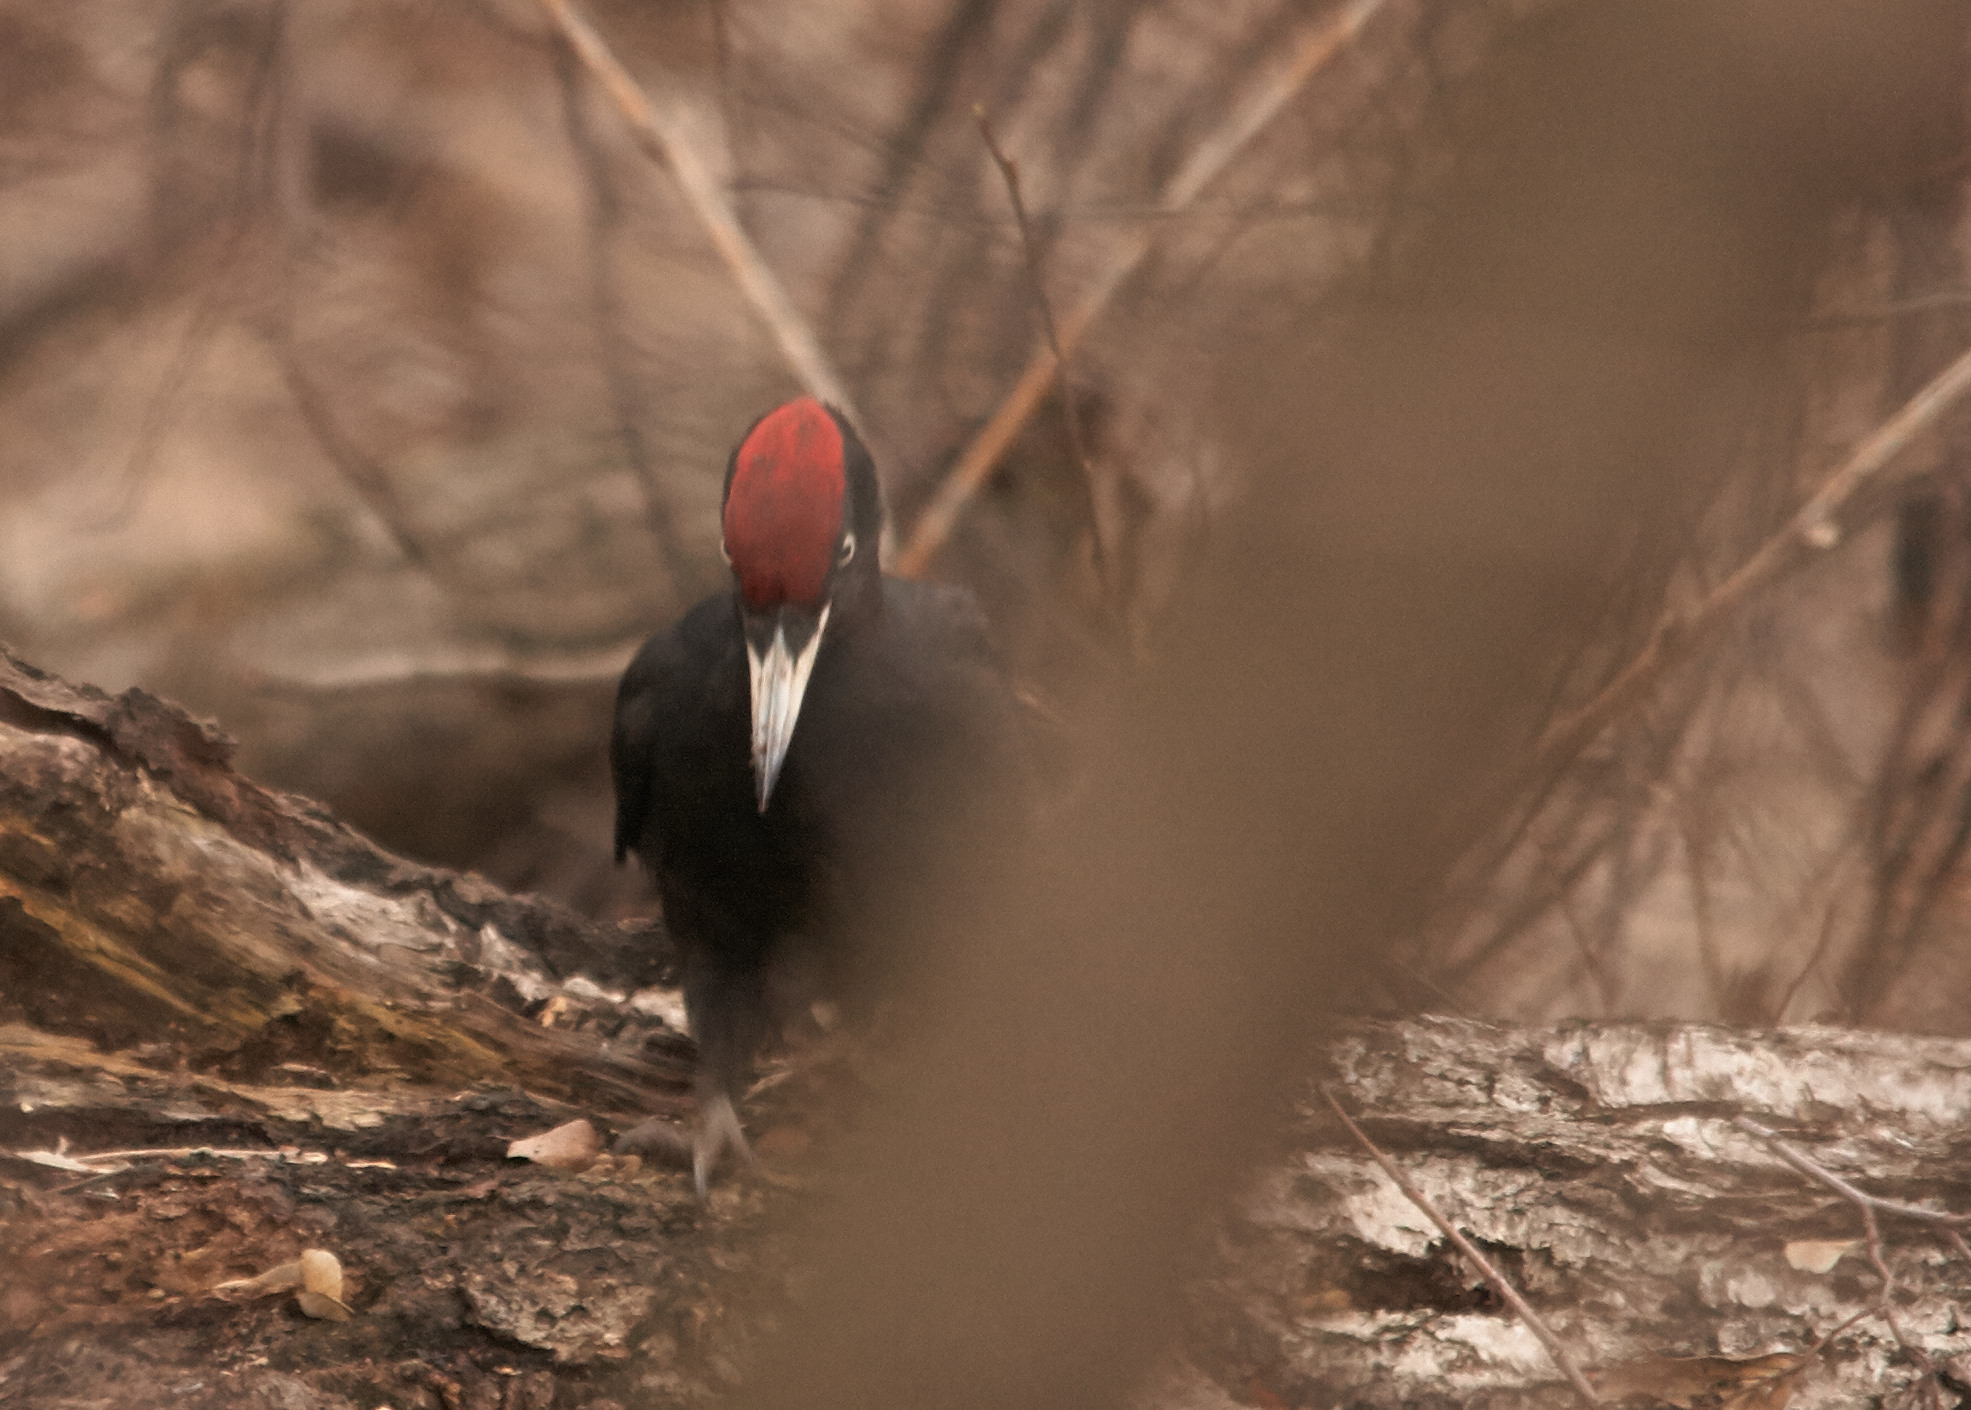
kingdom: Animalia
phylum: Chordata
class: Aves
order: Piciformes
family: Picidae
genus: Dryocopus
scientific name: Dryocopus martius
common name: Black woodpecker
